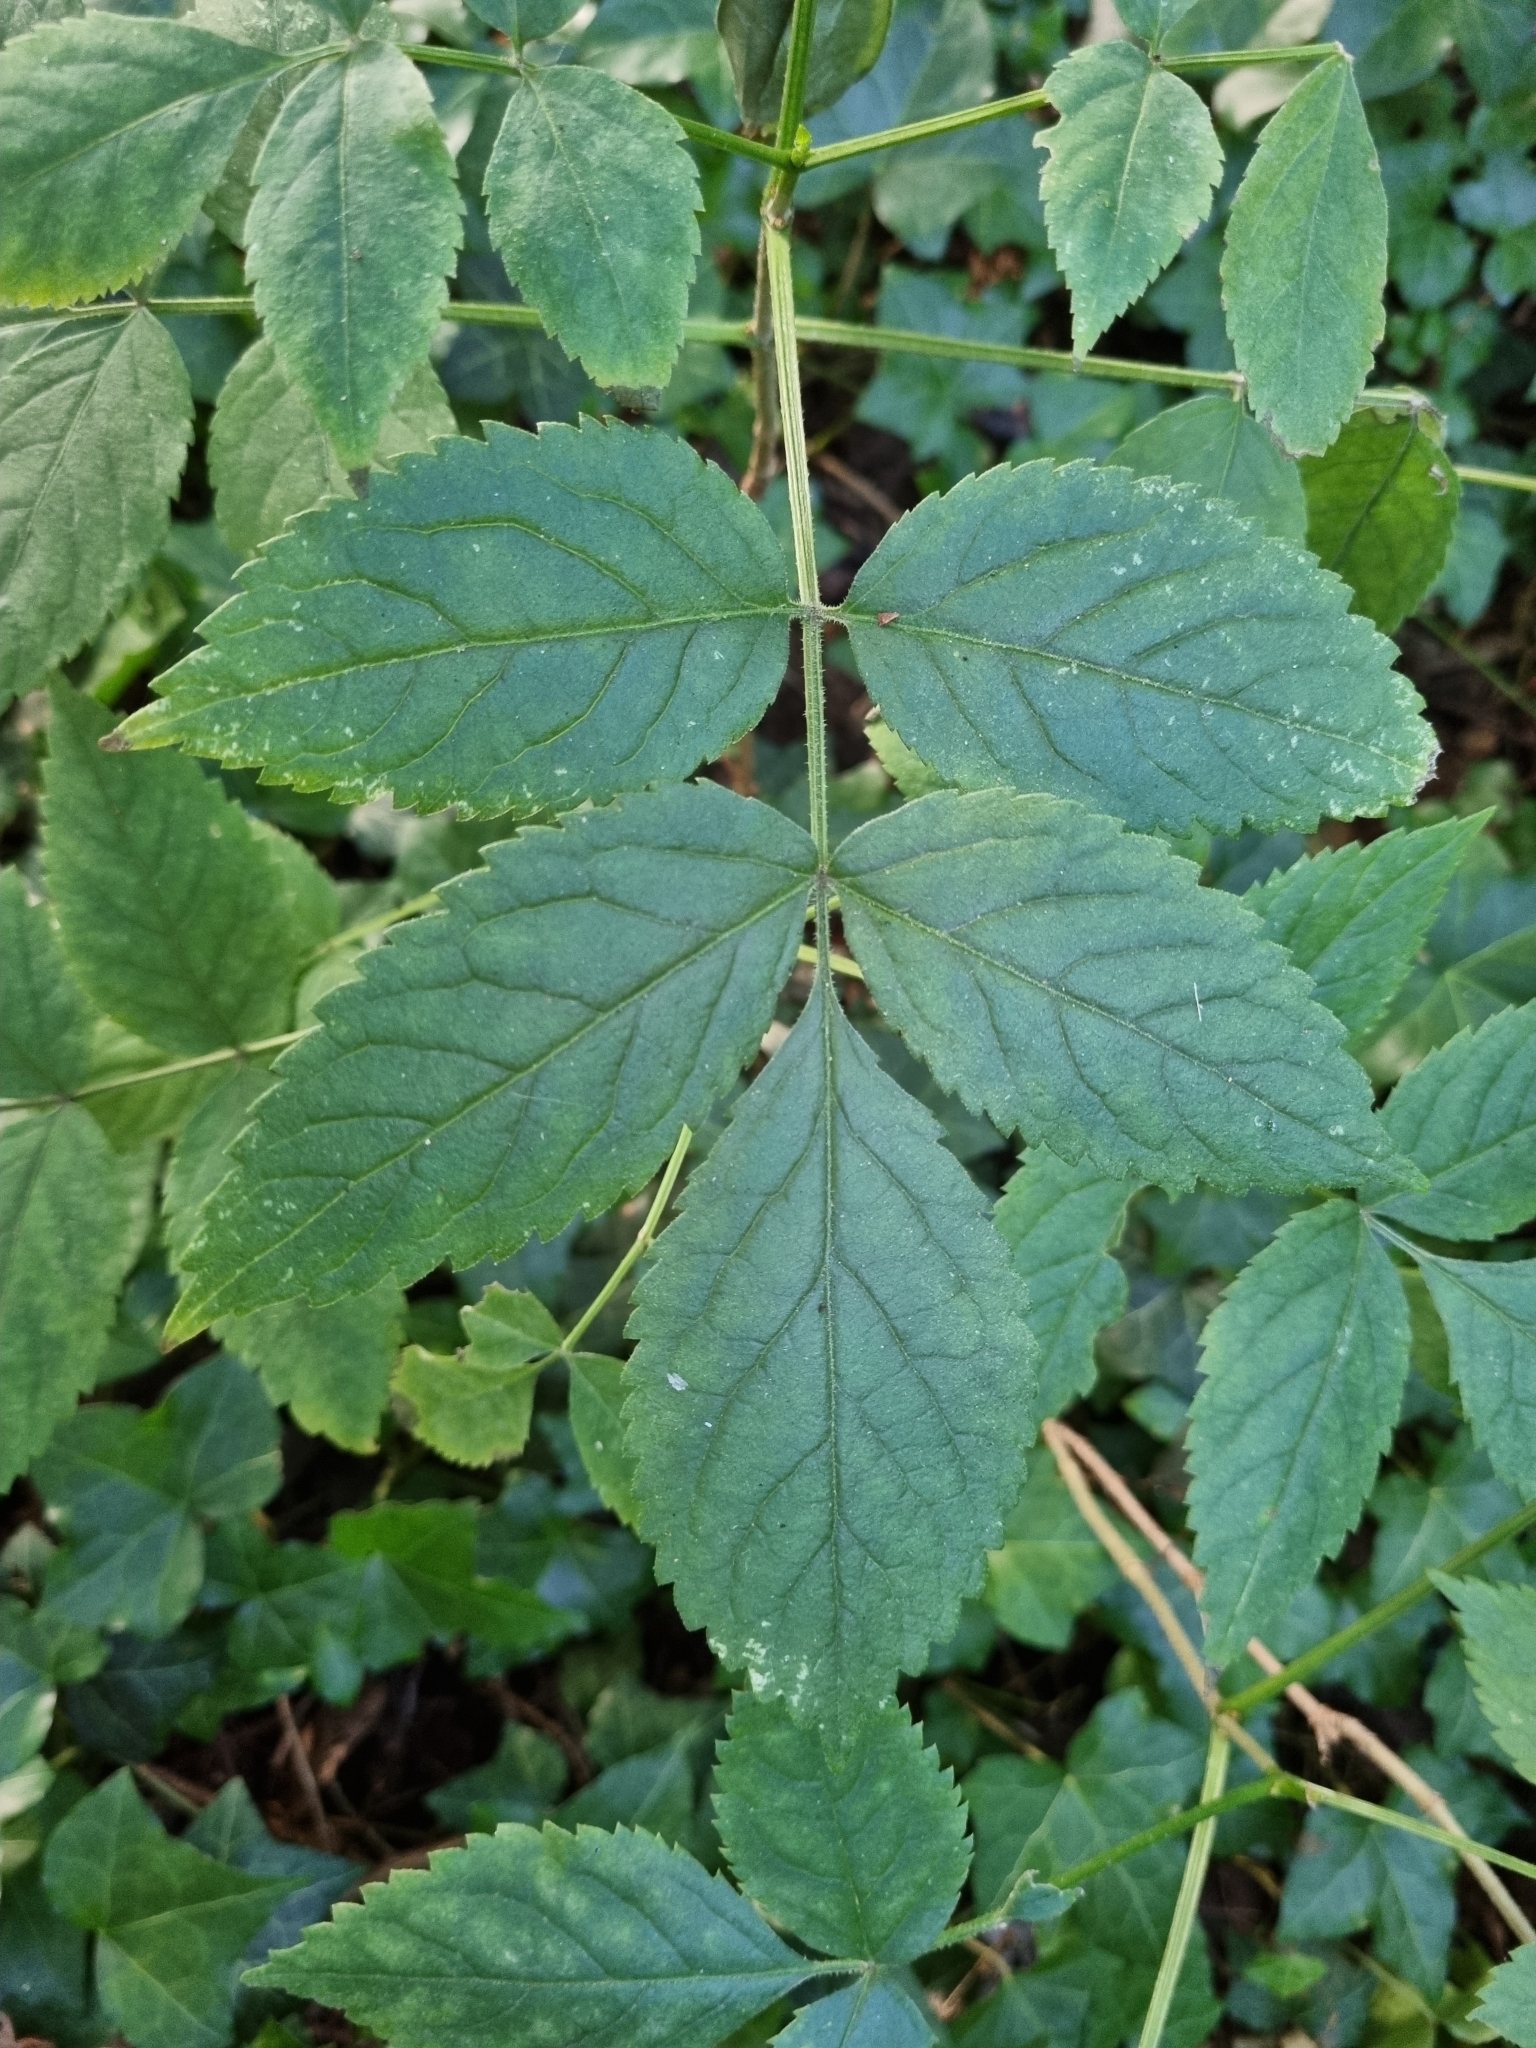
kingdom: Plantae
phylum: Tracheophyta
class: Magnoliopsida
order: Dipsacales
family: Viburnaceae
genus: Sambucus
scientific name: Sambucus nigra
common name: Elder
